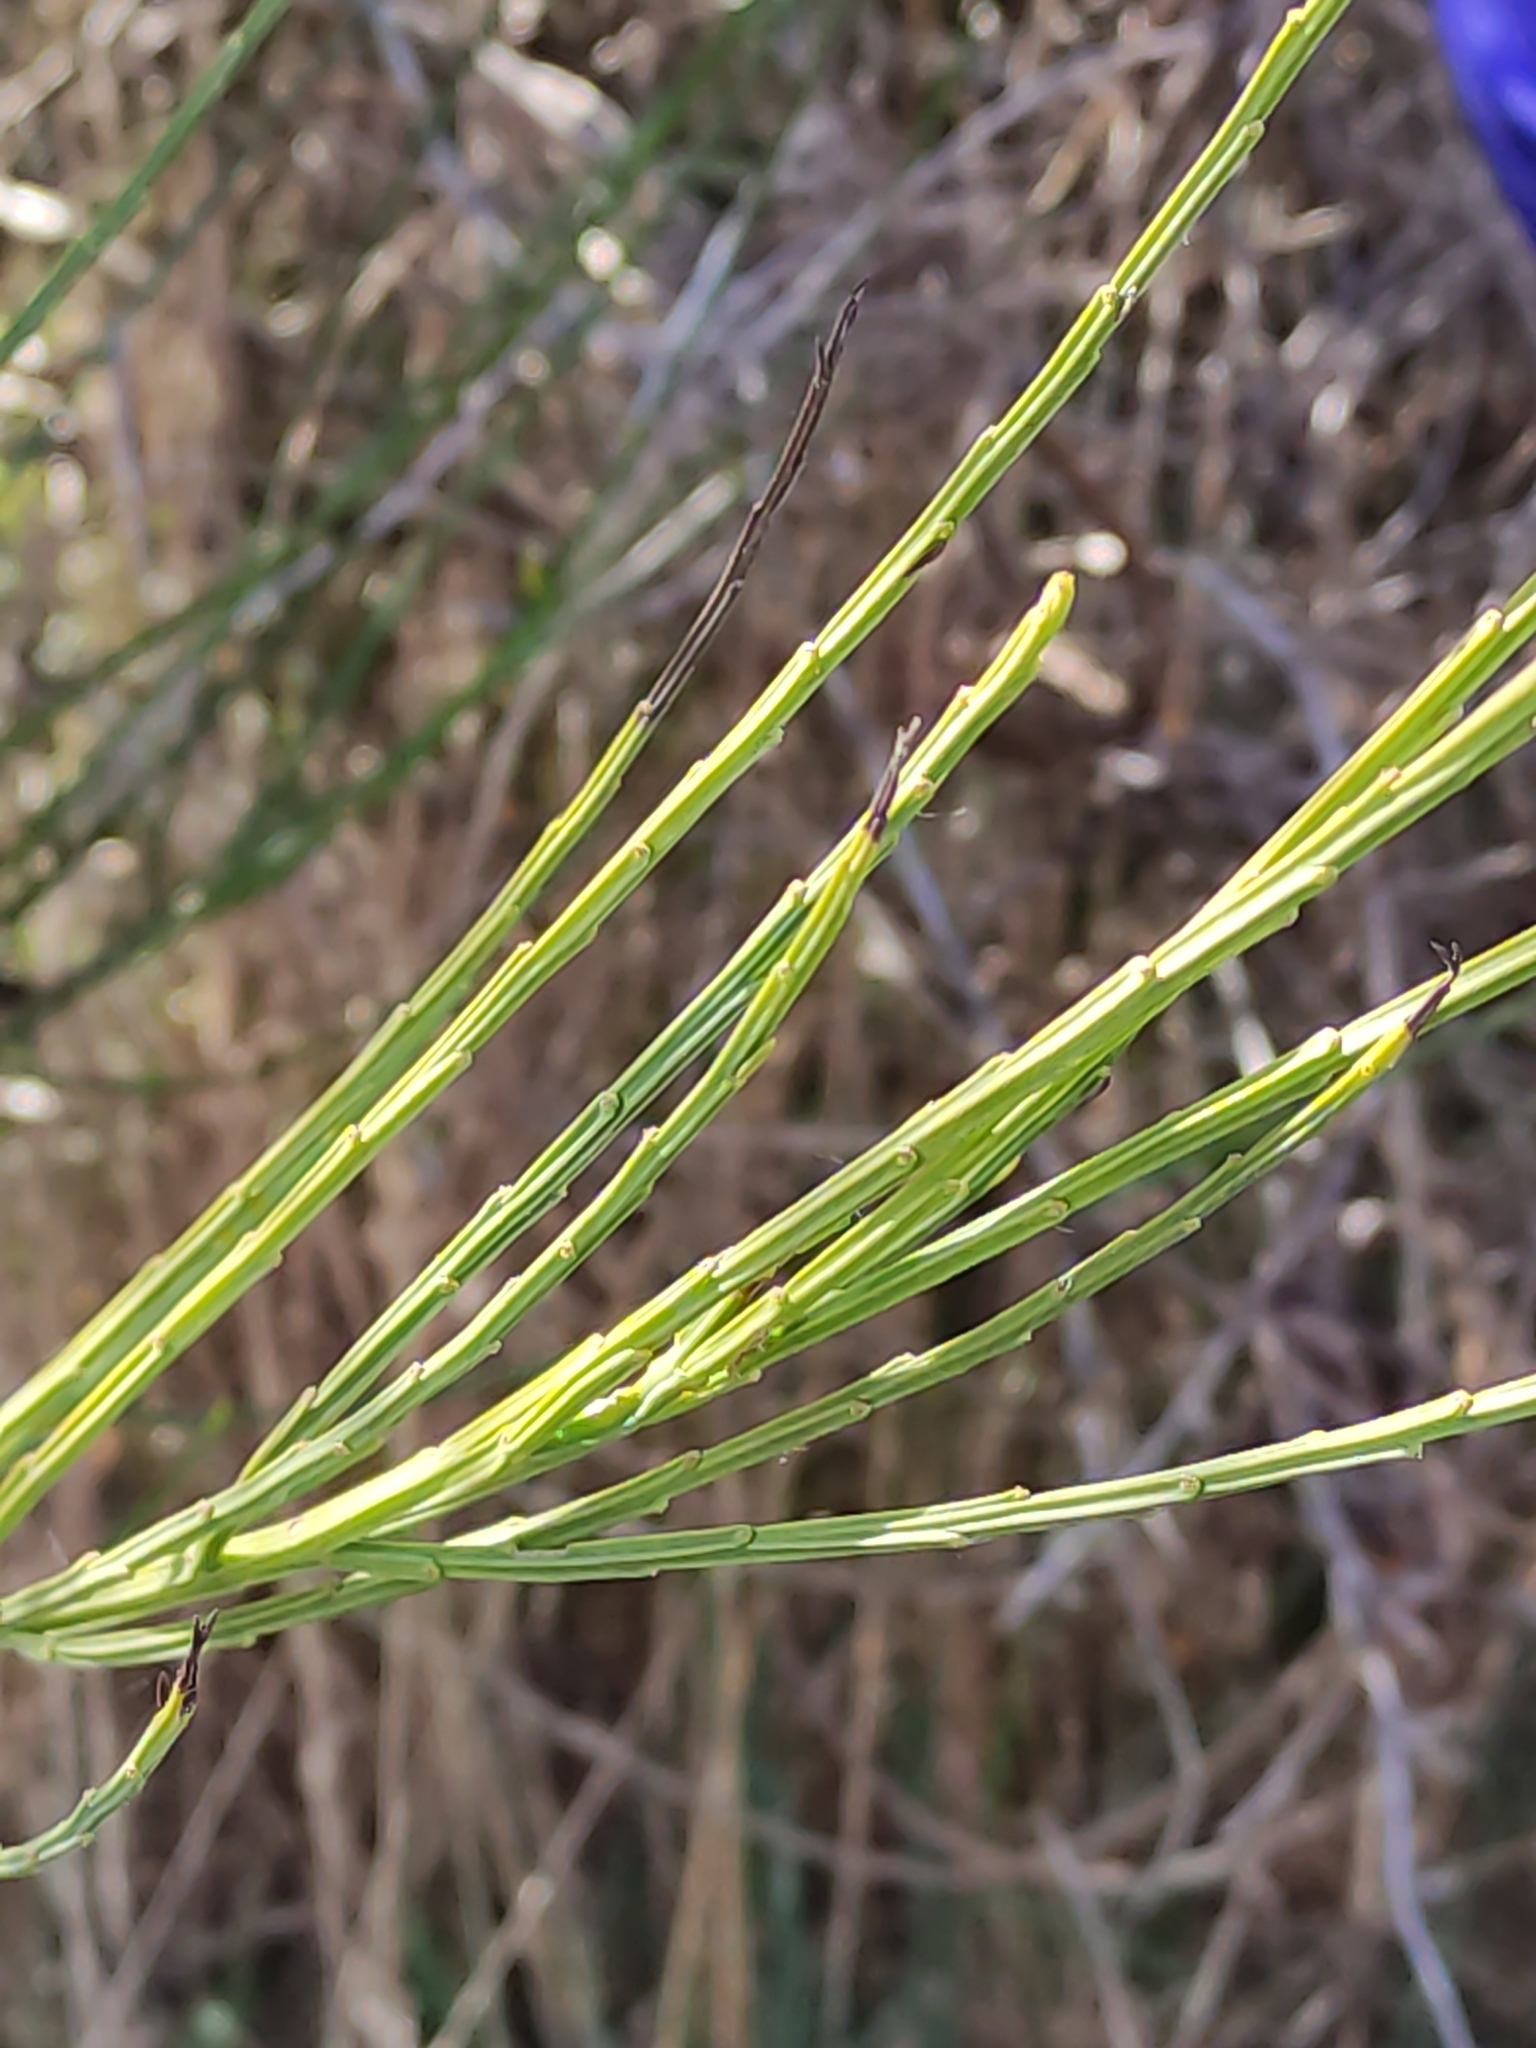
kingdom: Plantae
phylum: Tracheophyta
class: Magnoliopsida
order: Fabales
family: Fabaceae
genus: Cytisus
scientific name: Cytisus scoparius
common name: Scotch broom
